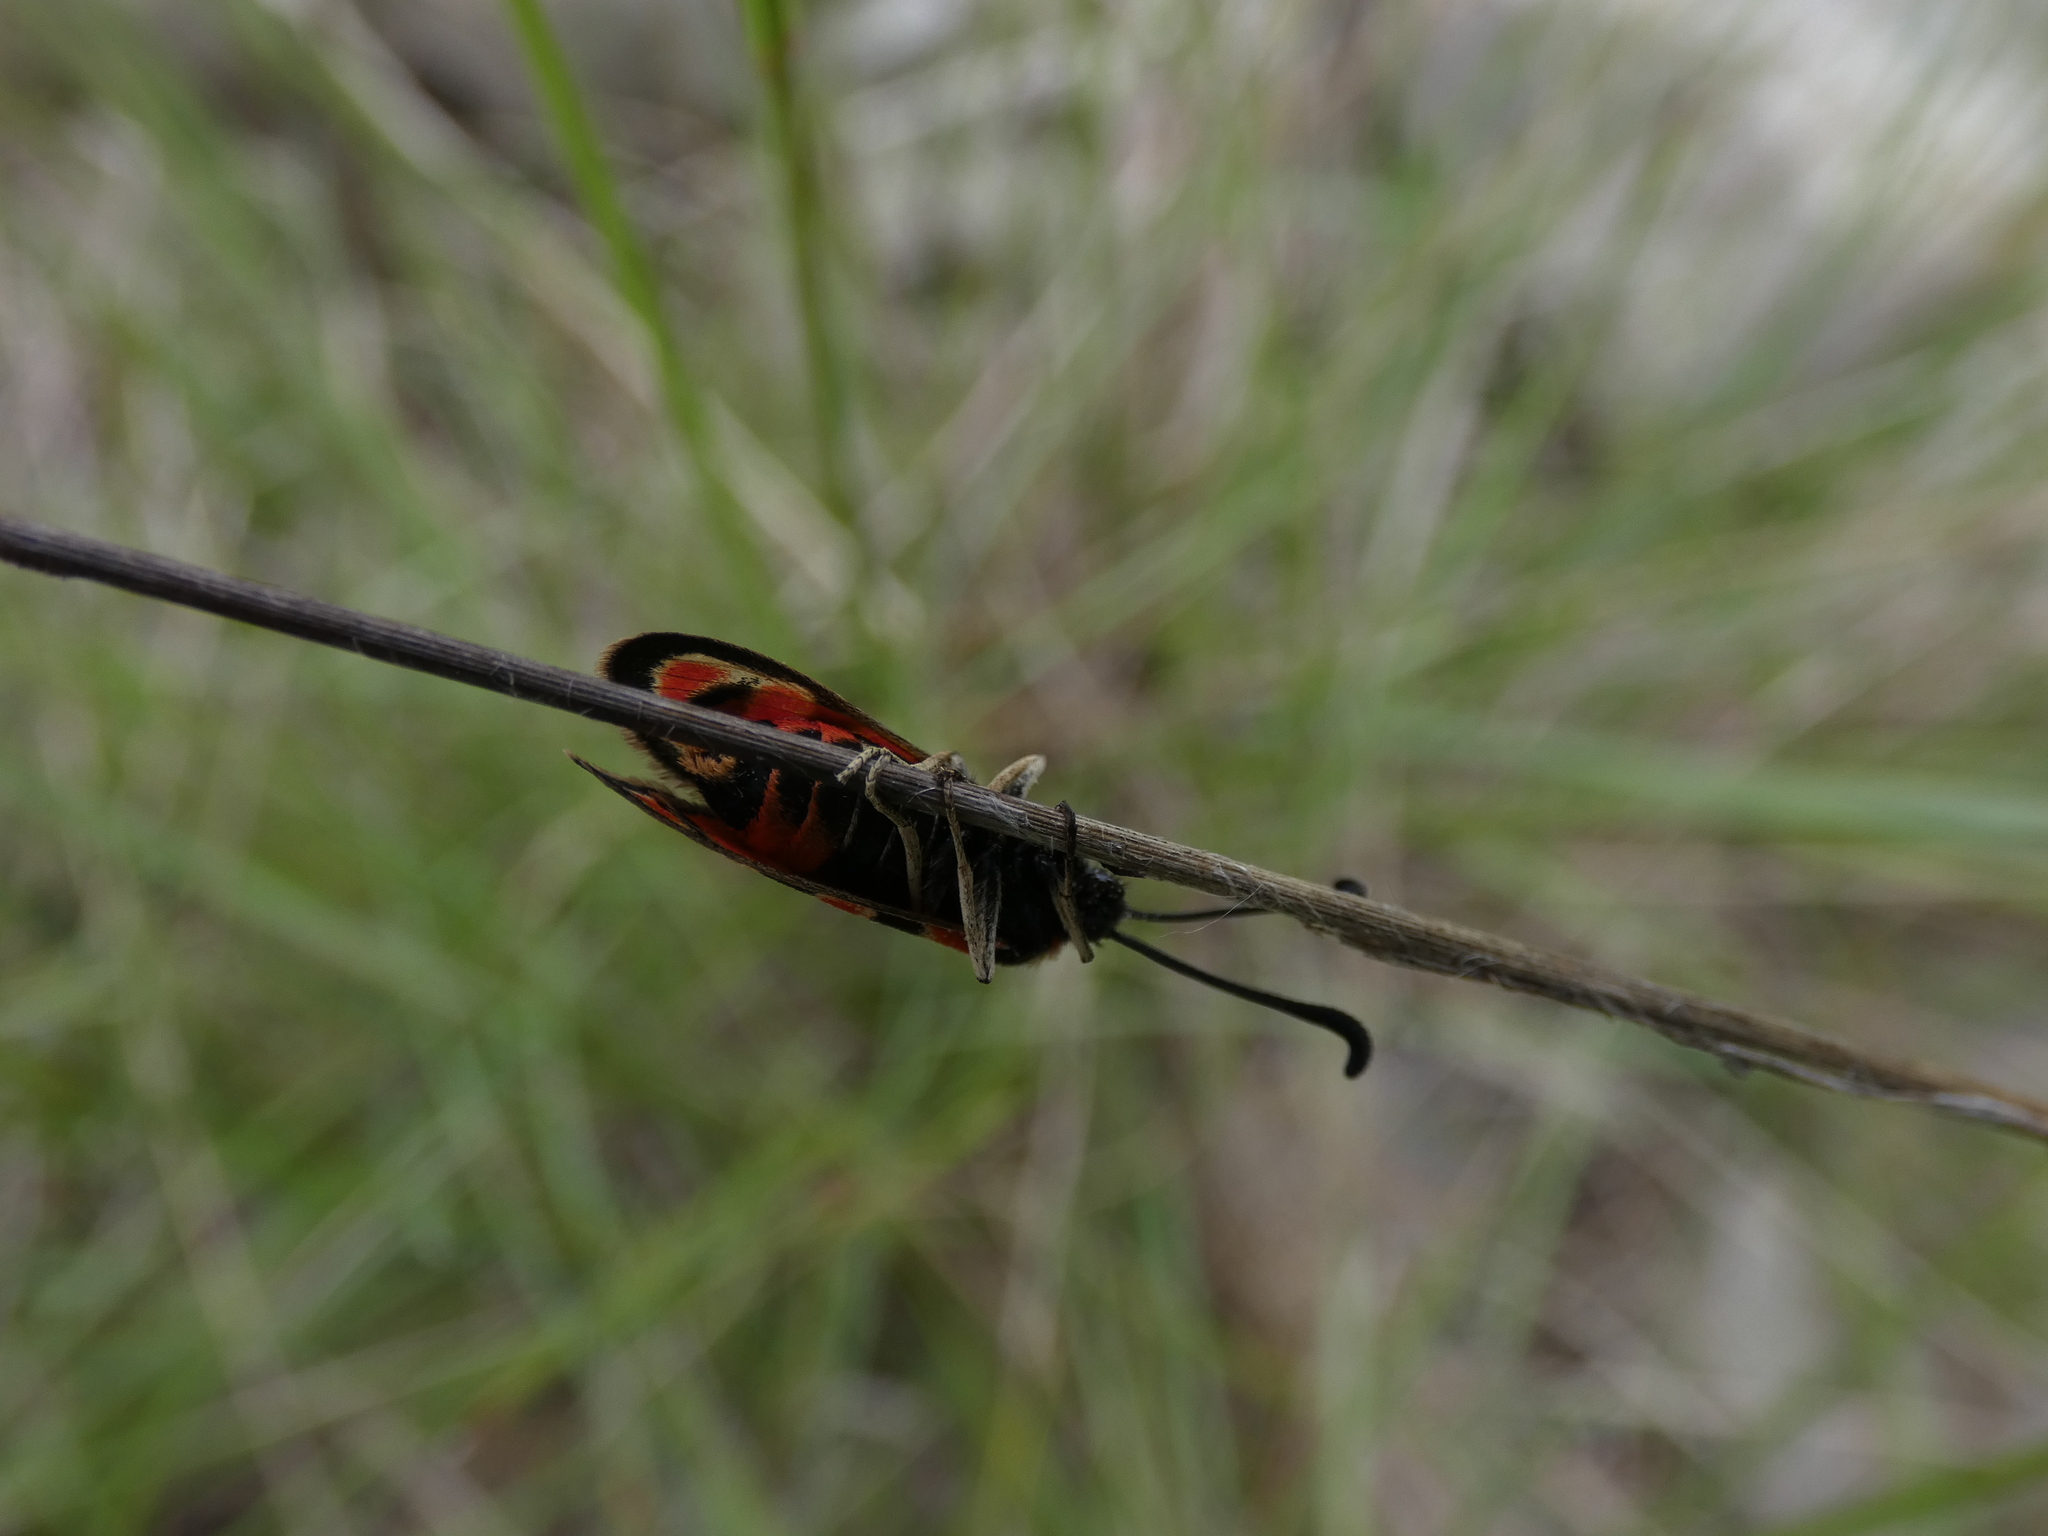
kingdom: Animalia
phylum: Arthropoda
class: Insecta
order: Lepidoptera
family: Zygaenidae
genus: Zygaena
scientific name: Zygaena fausta
